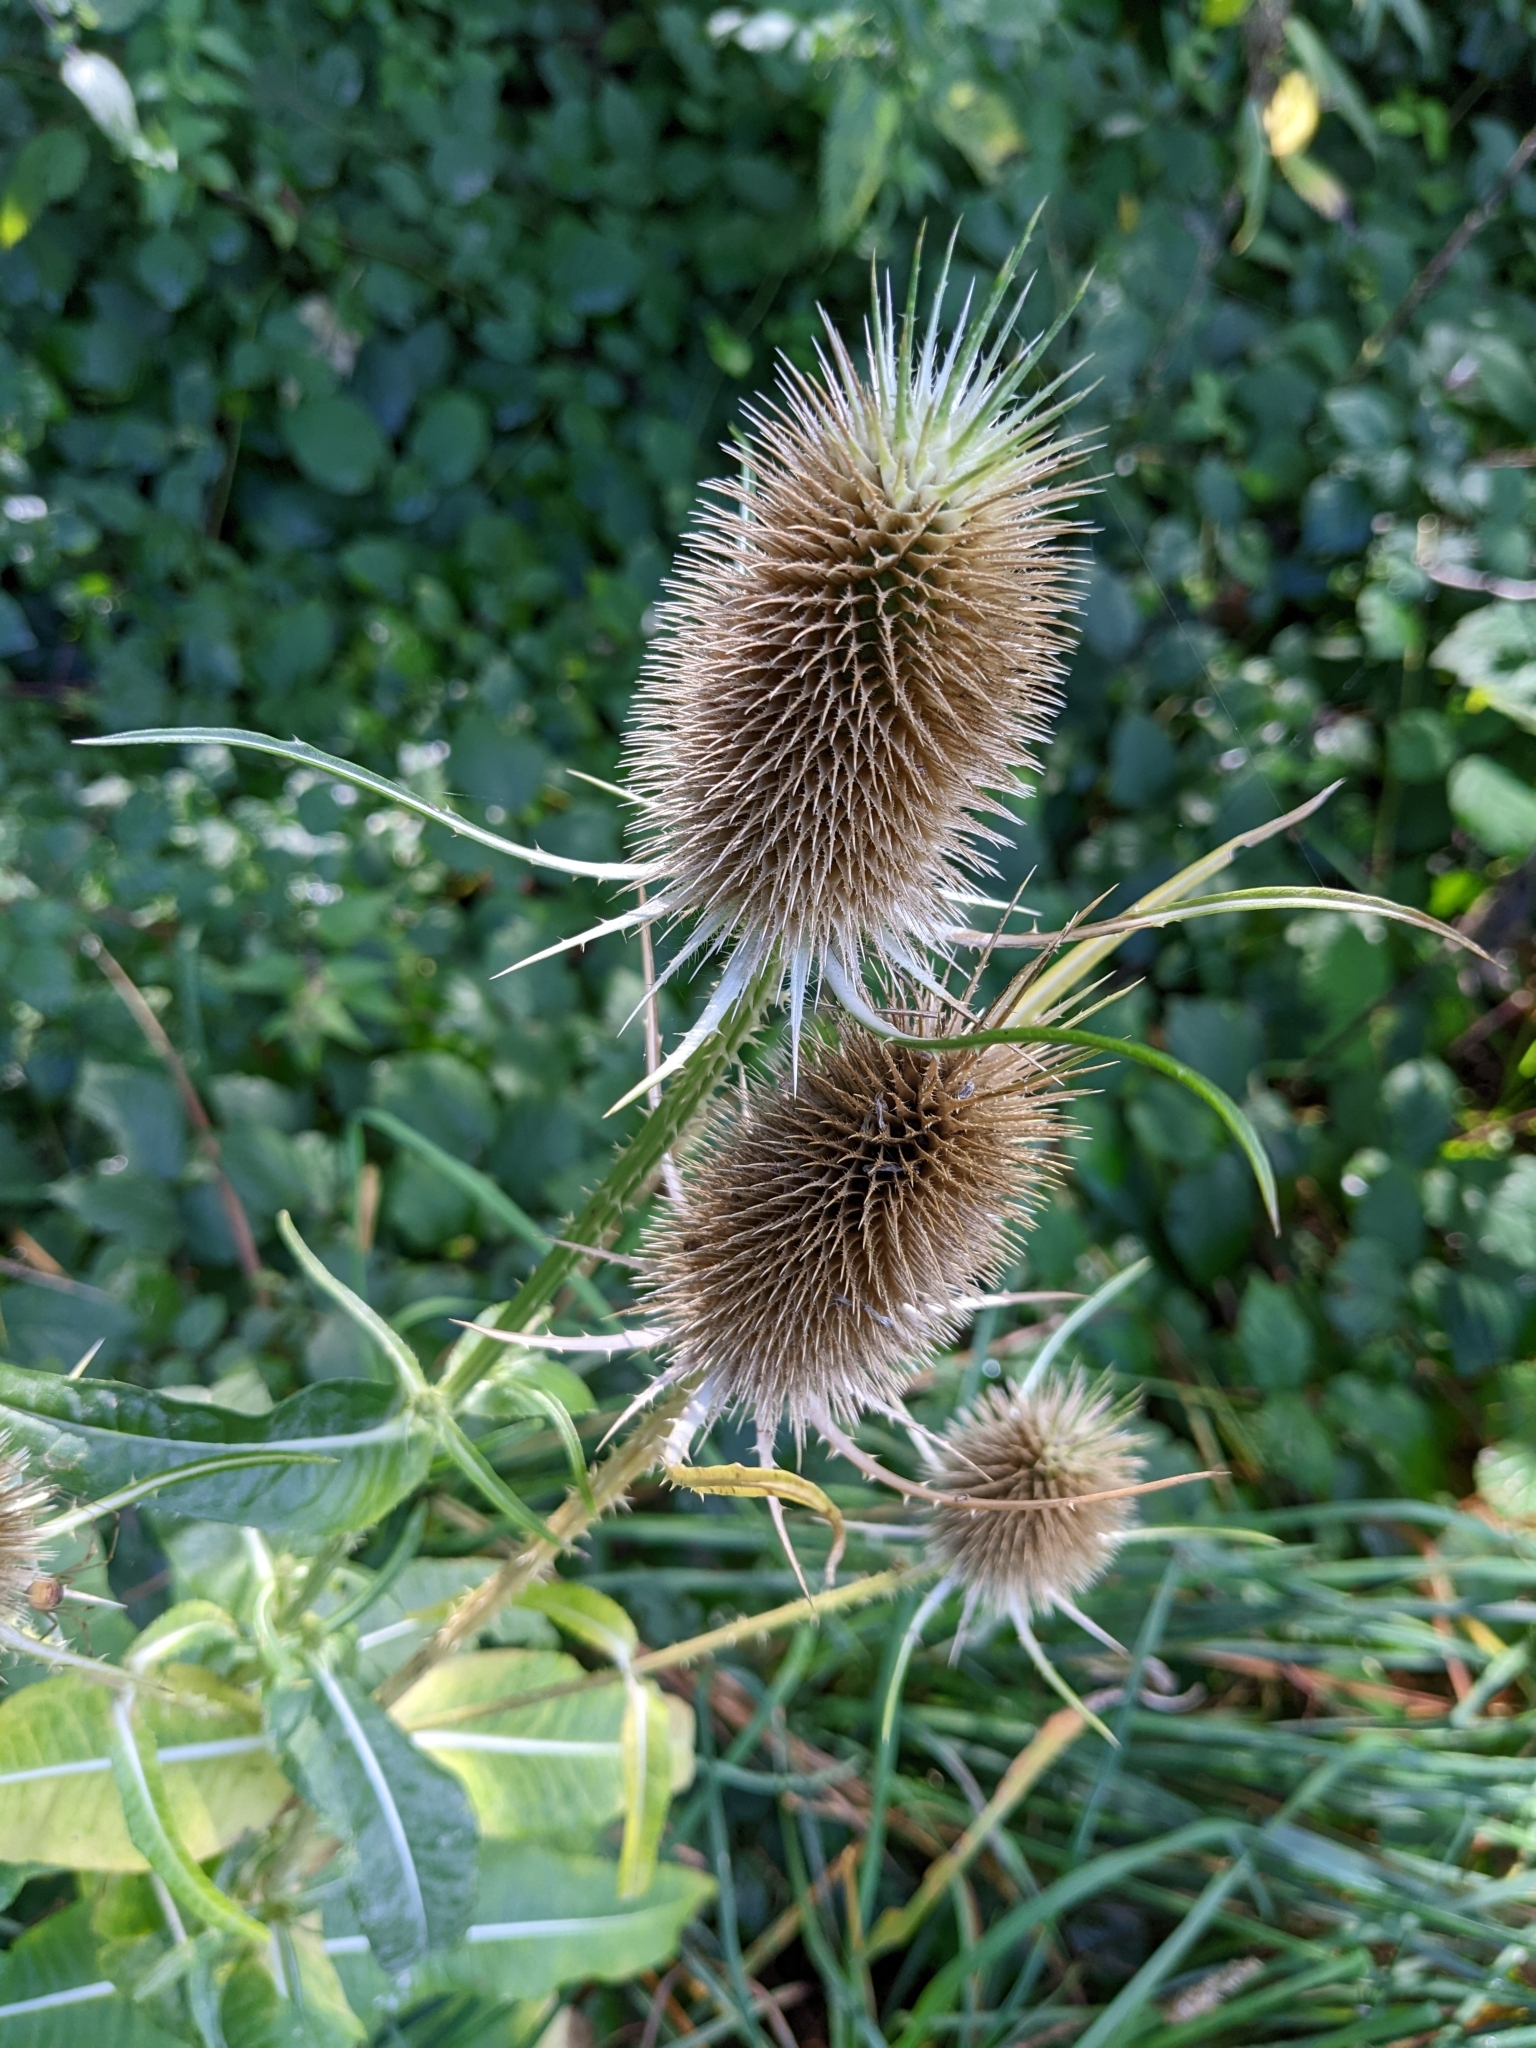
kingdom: Plantae
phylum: Tracheophyta
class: Magnoliopsida
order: Dipsacales
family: Caprifoliaceae
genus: Dipsacus
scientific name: Dipsacus fullonum
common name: Teasel
